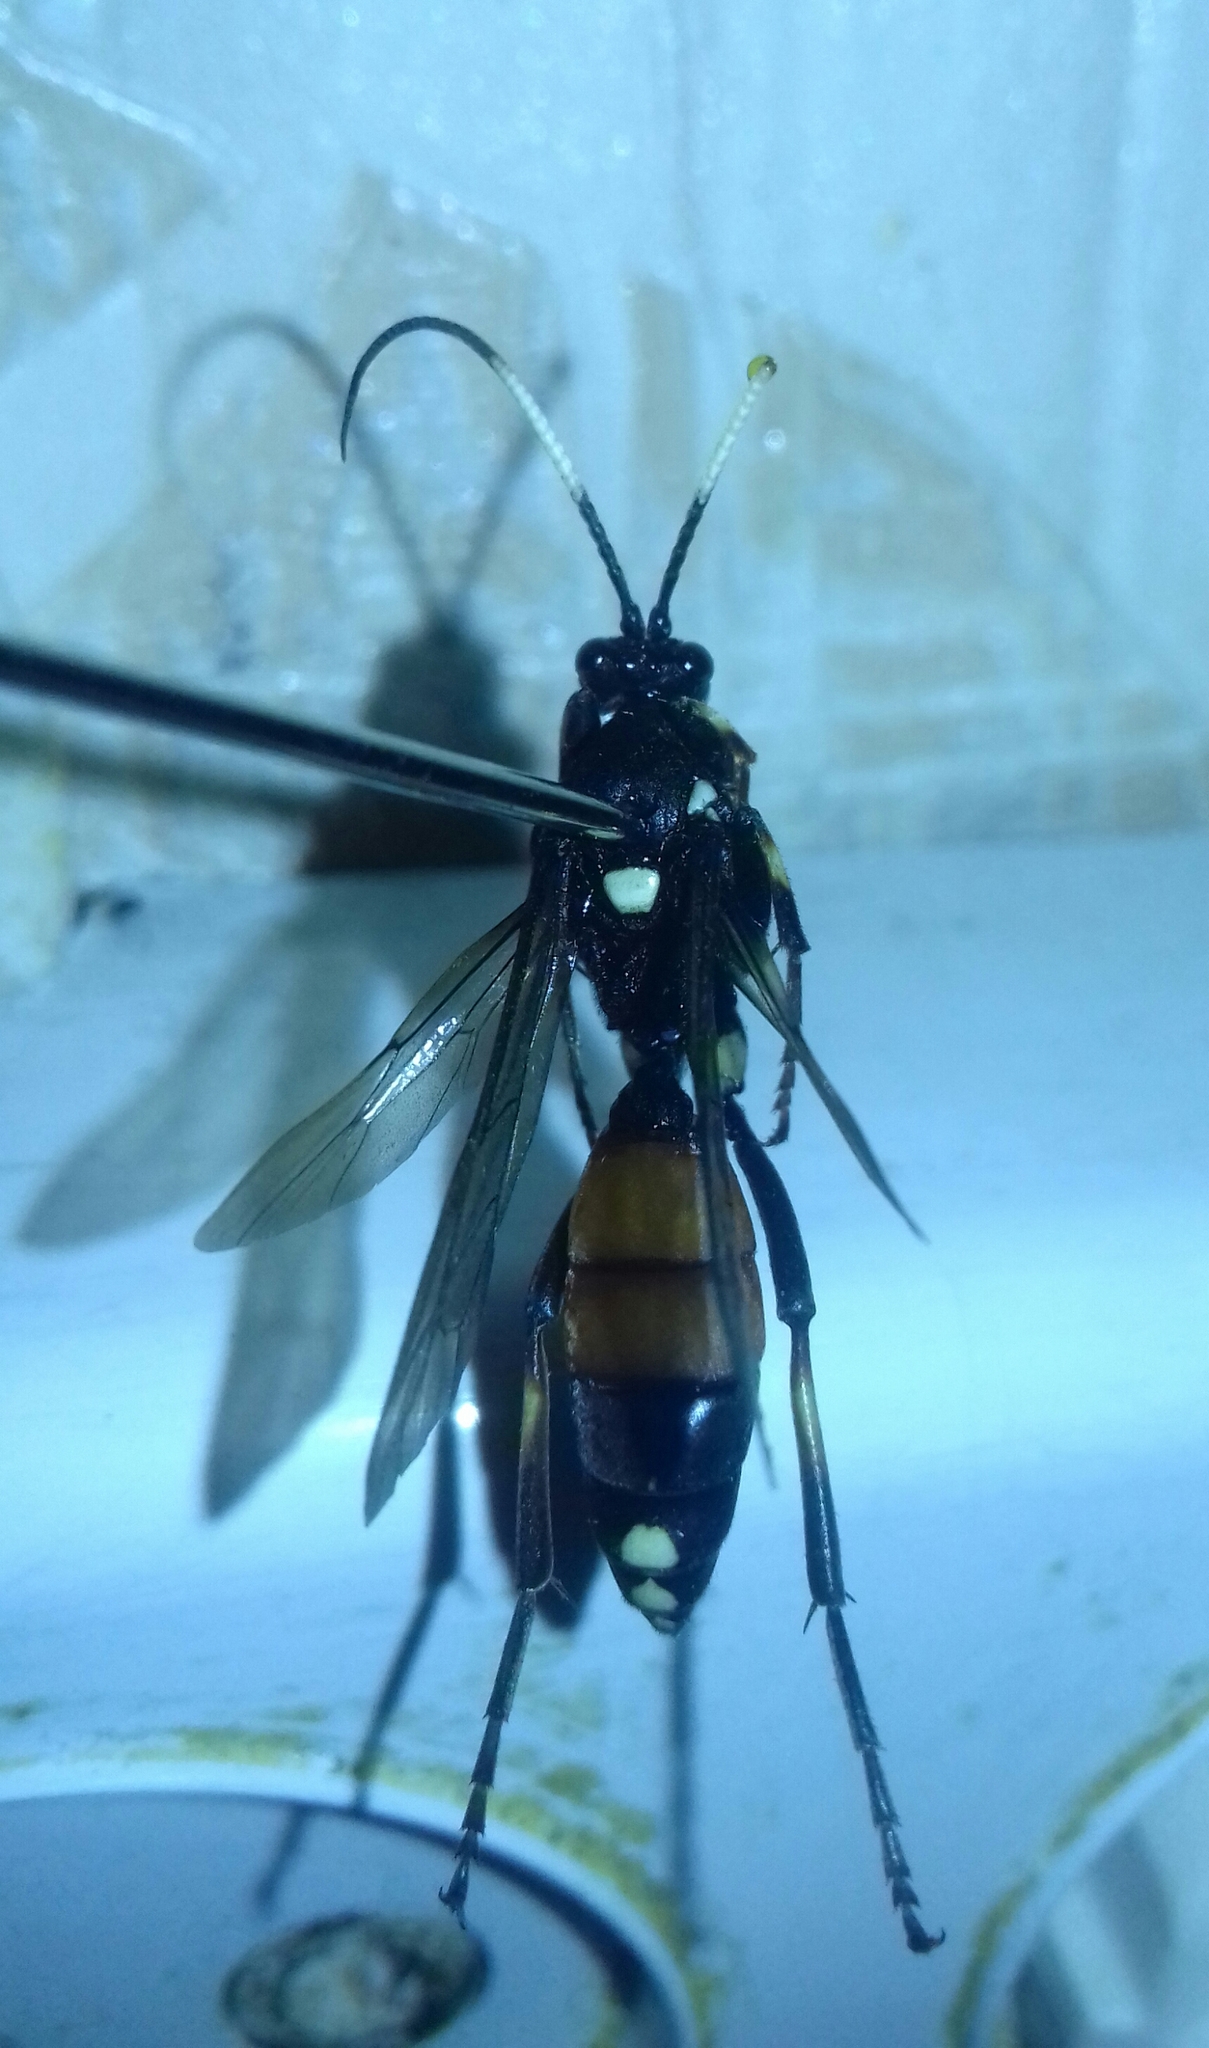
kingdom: Animalia
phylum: Arthropoda
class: Insecta
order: Hymenoptera
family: Ichneumonidae
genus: Ichneumon
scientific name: Ichneumon primatorius
